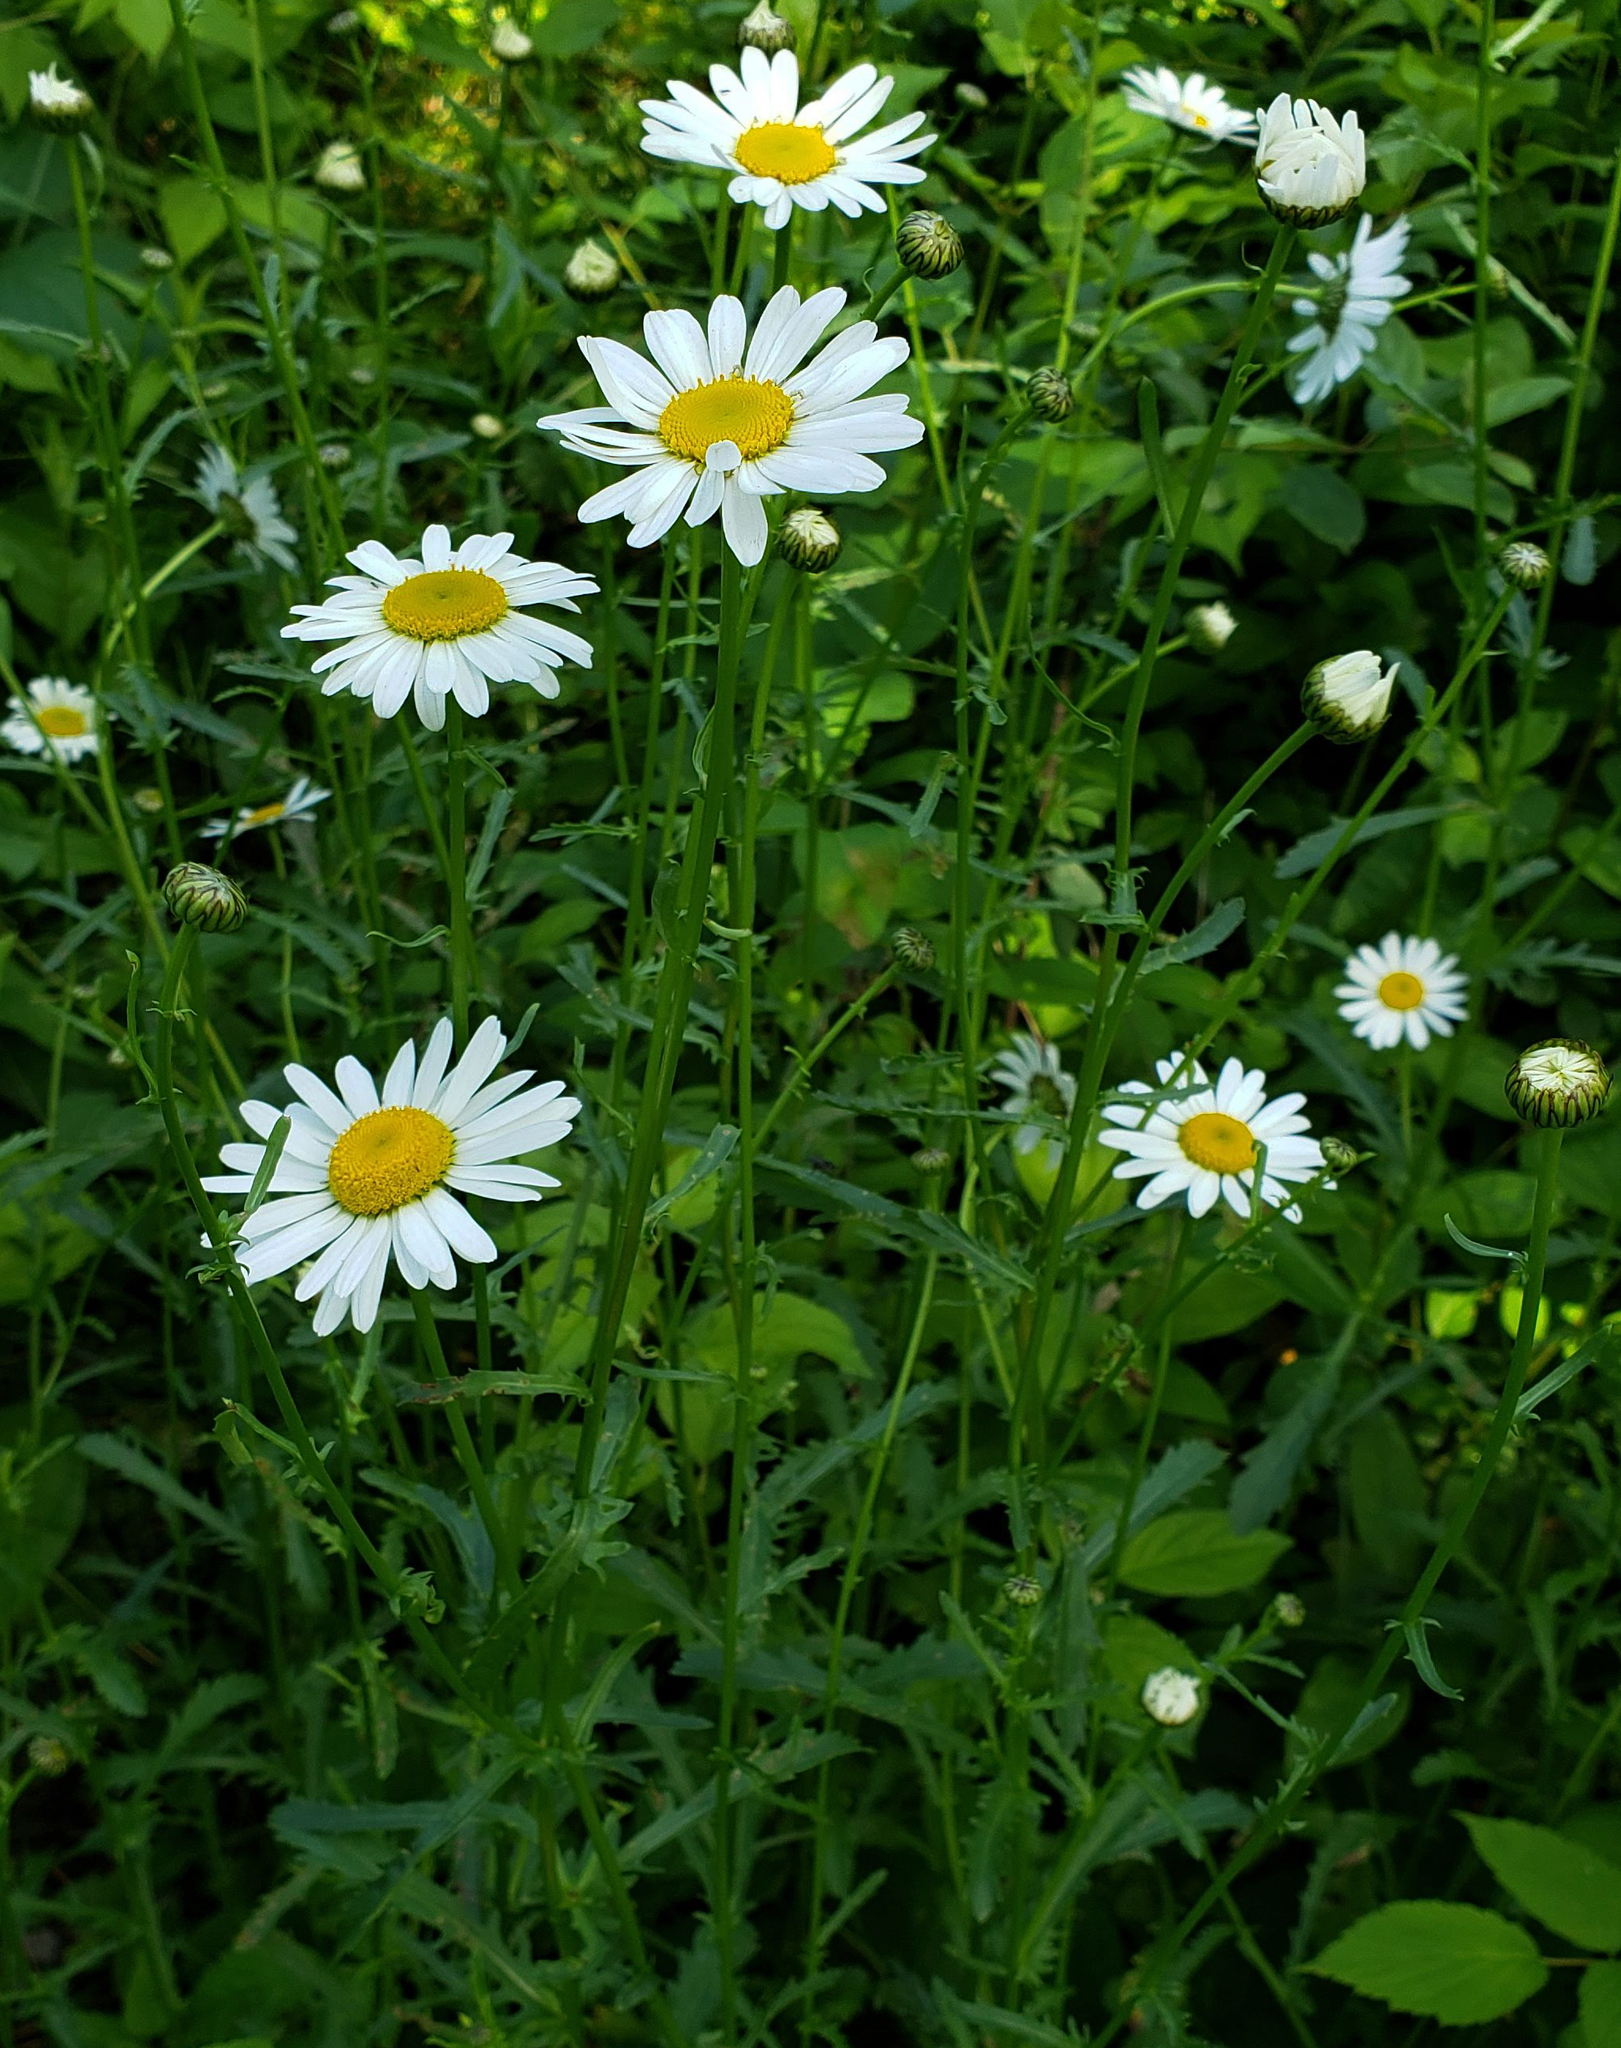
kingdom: Plantae
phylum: Tracheophyta
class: Magnoliopsida
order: Asterales
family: Asteraceae
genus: Leucanthemum
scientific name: Leucanthemum vulgare
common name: Oxeye daisy
